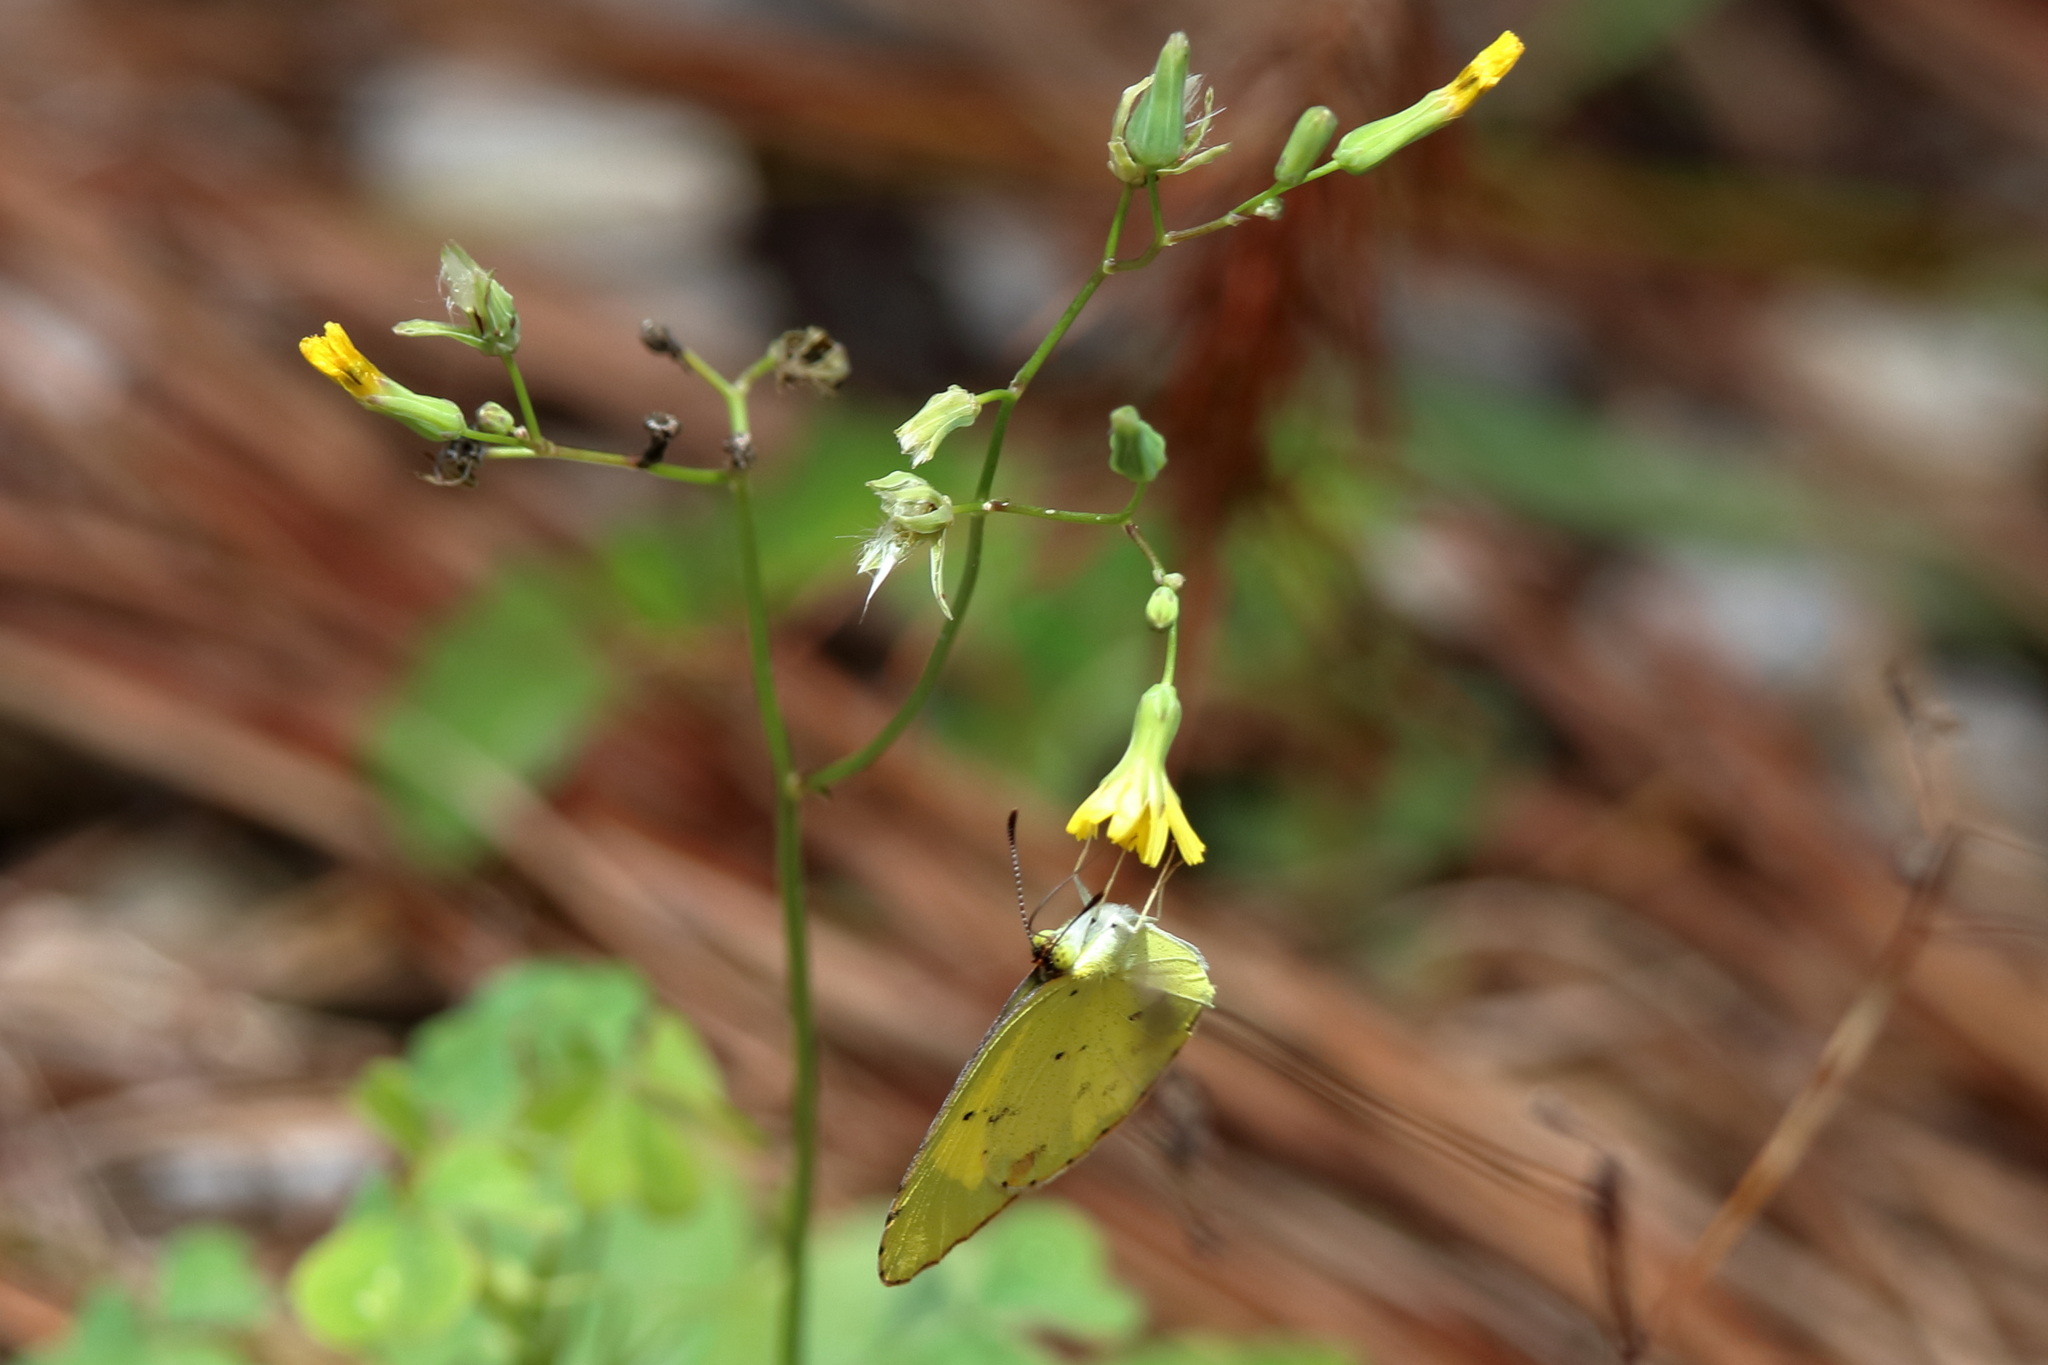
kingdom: Animalia
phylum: Arthropoda
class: Insecta
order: Lepidoptera
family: Pieridae
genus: Pyrisitia
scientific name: Pyrisitia lisa
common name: Little yellow
